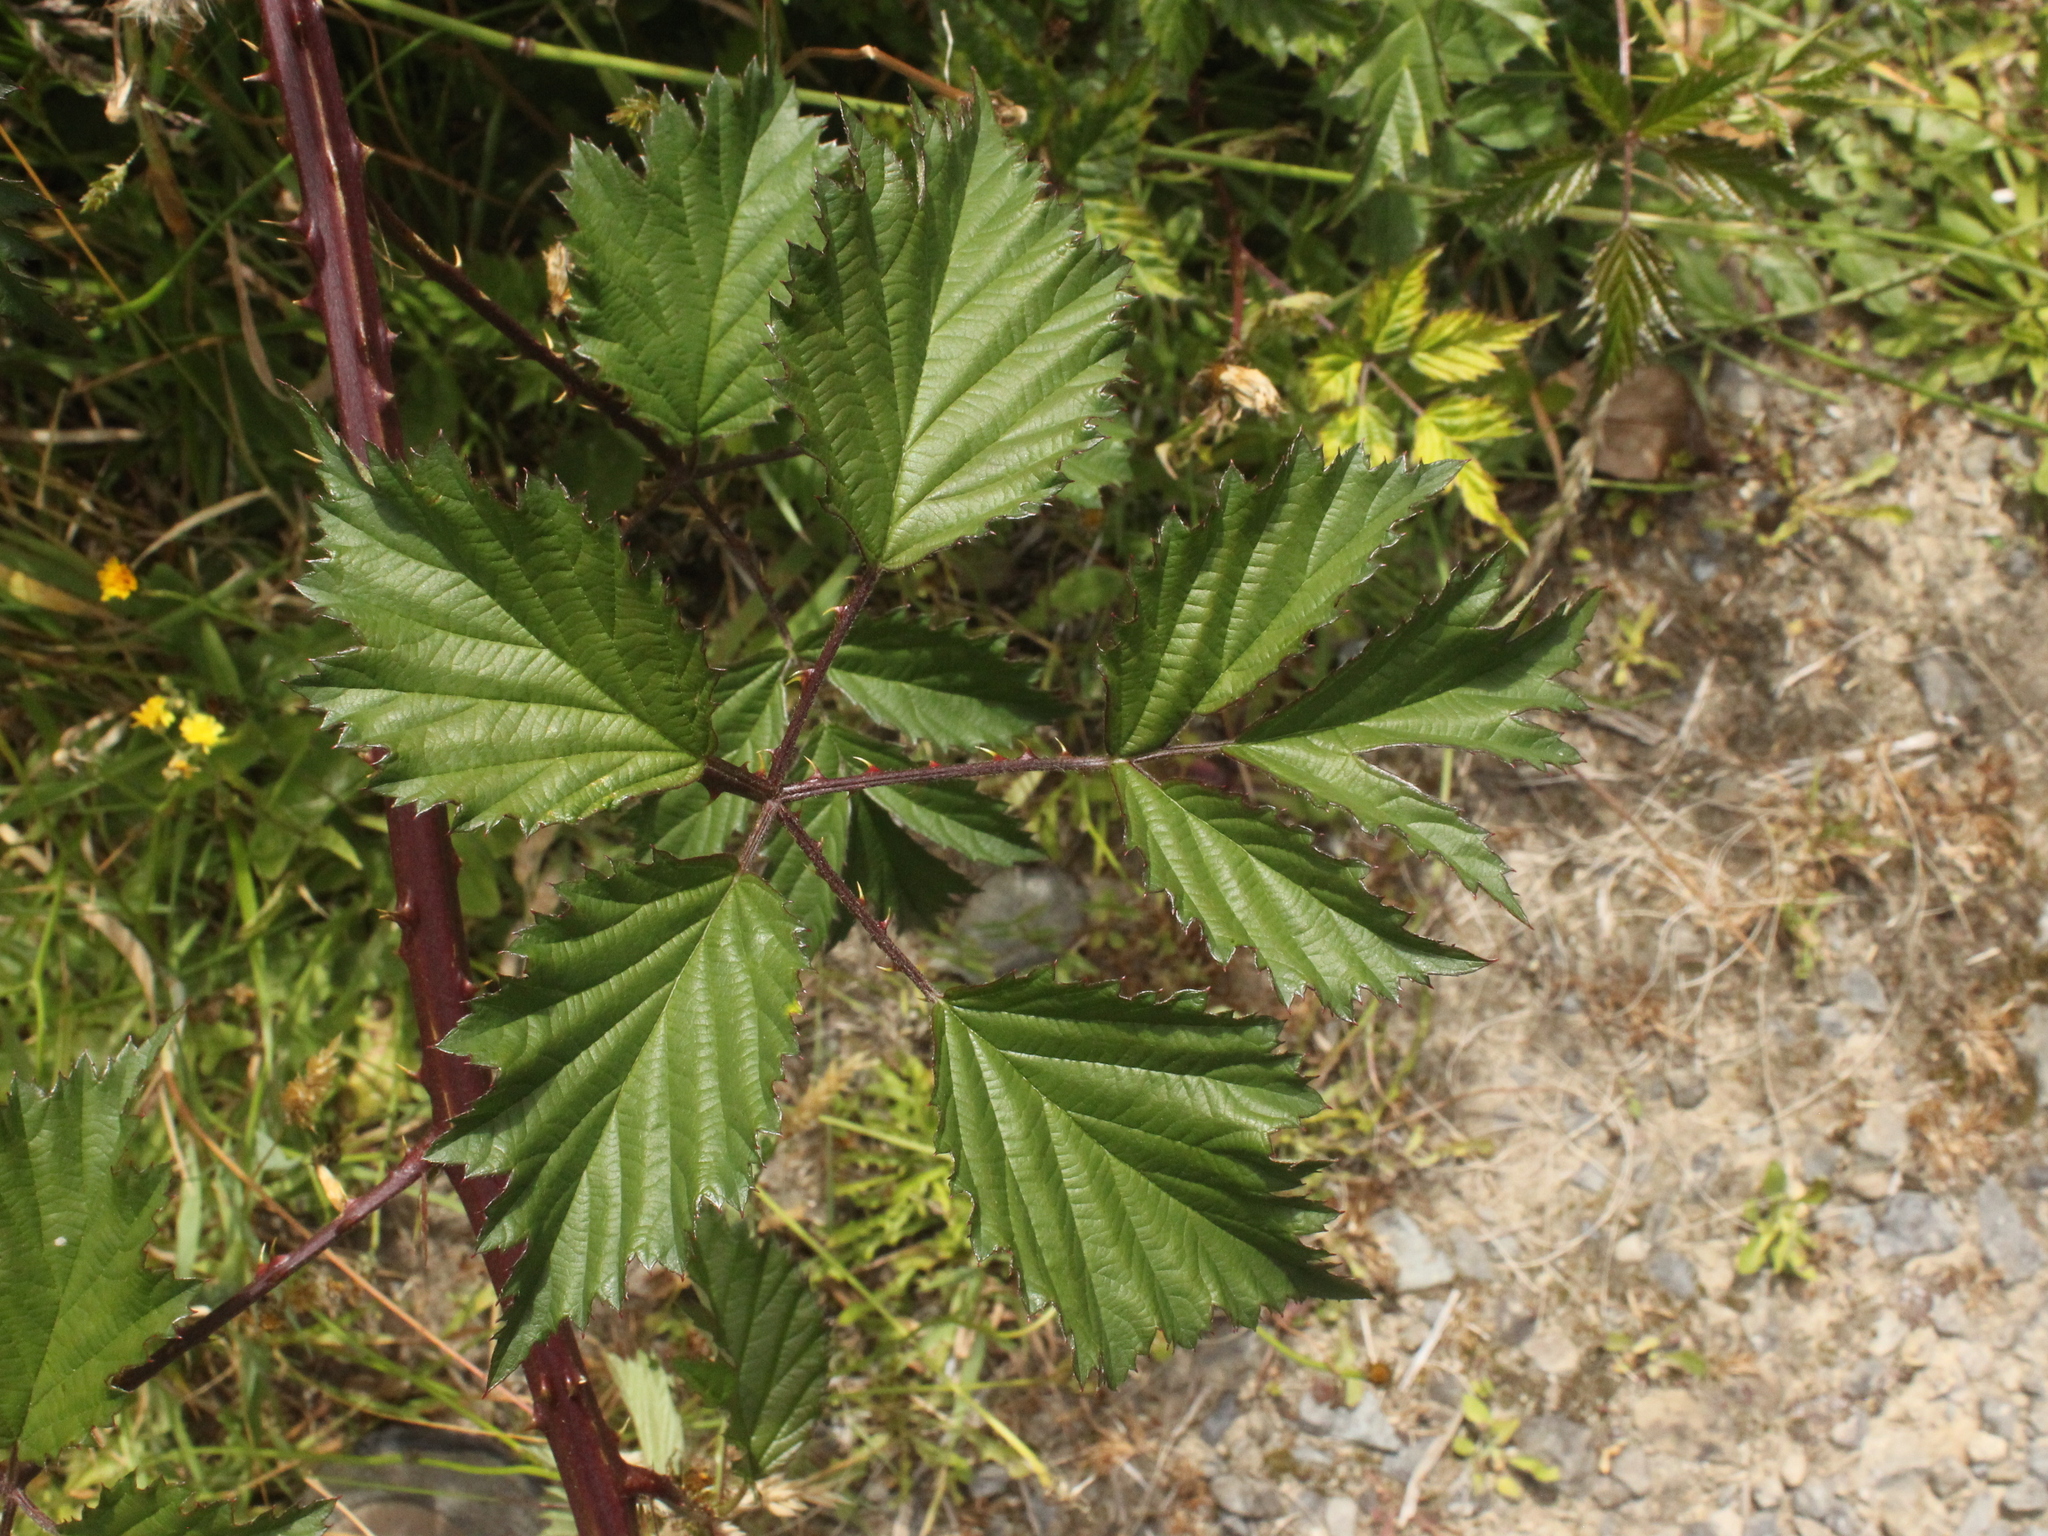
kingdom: Plantae
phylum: Tracheophyta
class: Magnoliopsida
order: Rosales
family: Rosaceae
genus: Rubus
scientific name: Rubus laciniatus
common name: Evergreen blackberry
